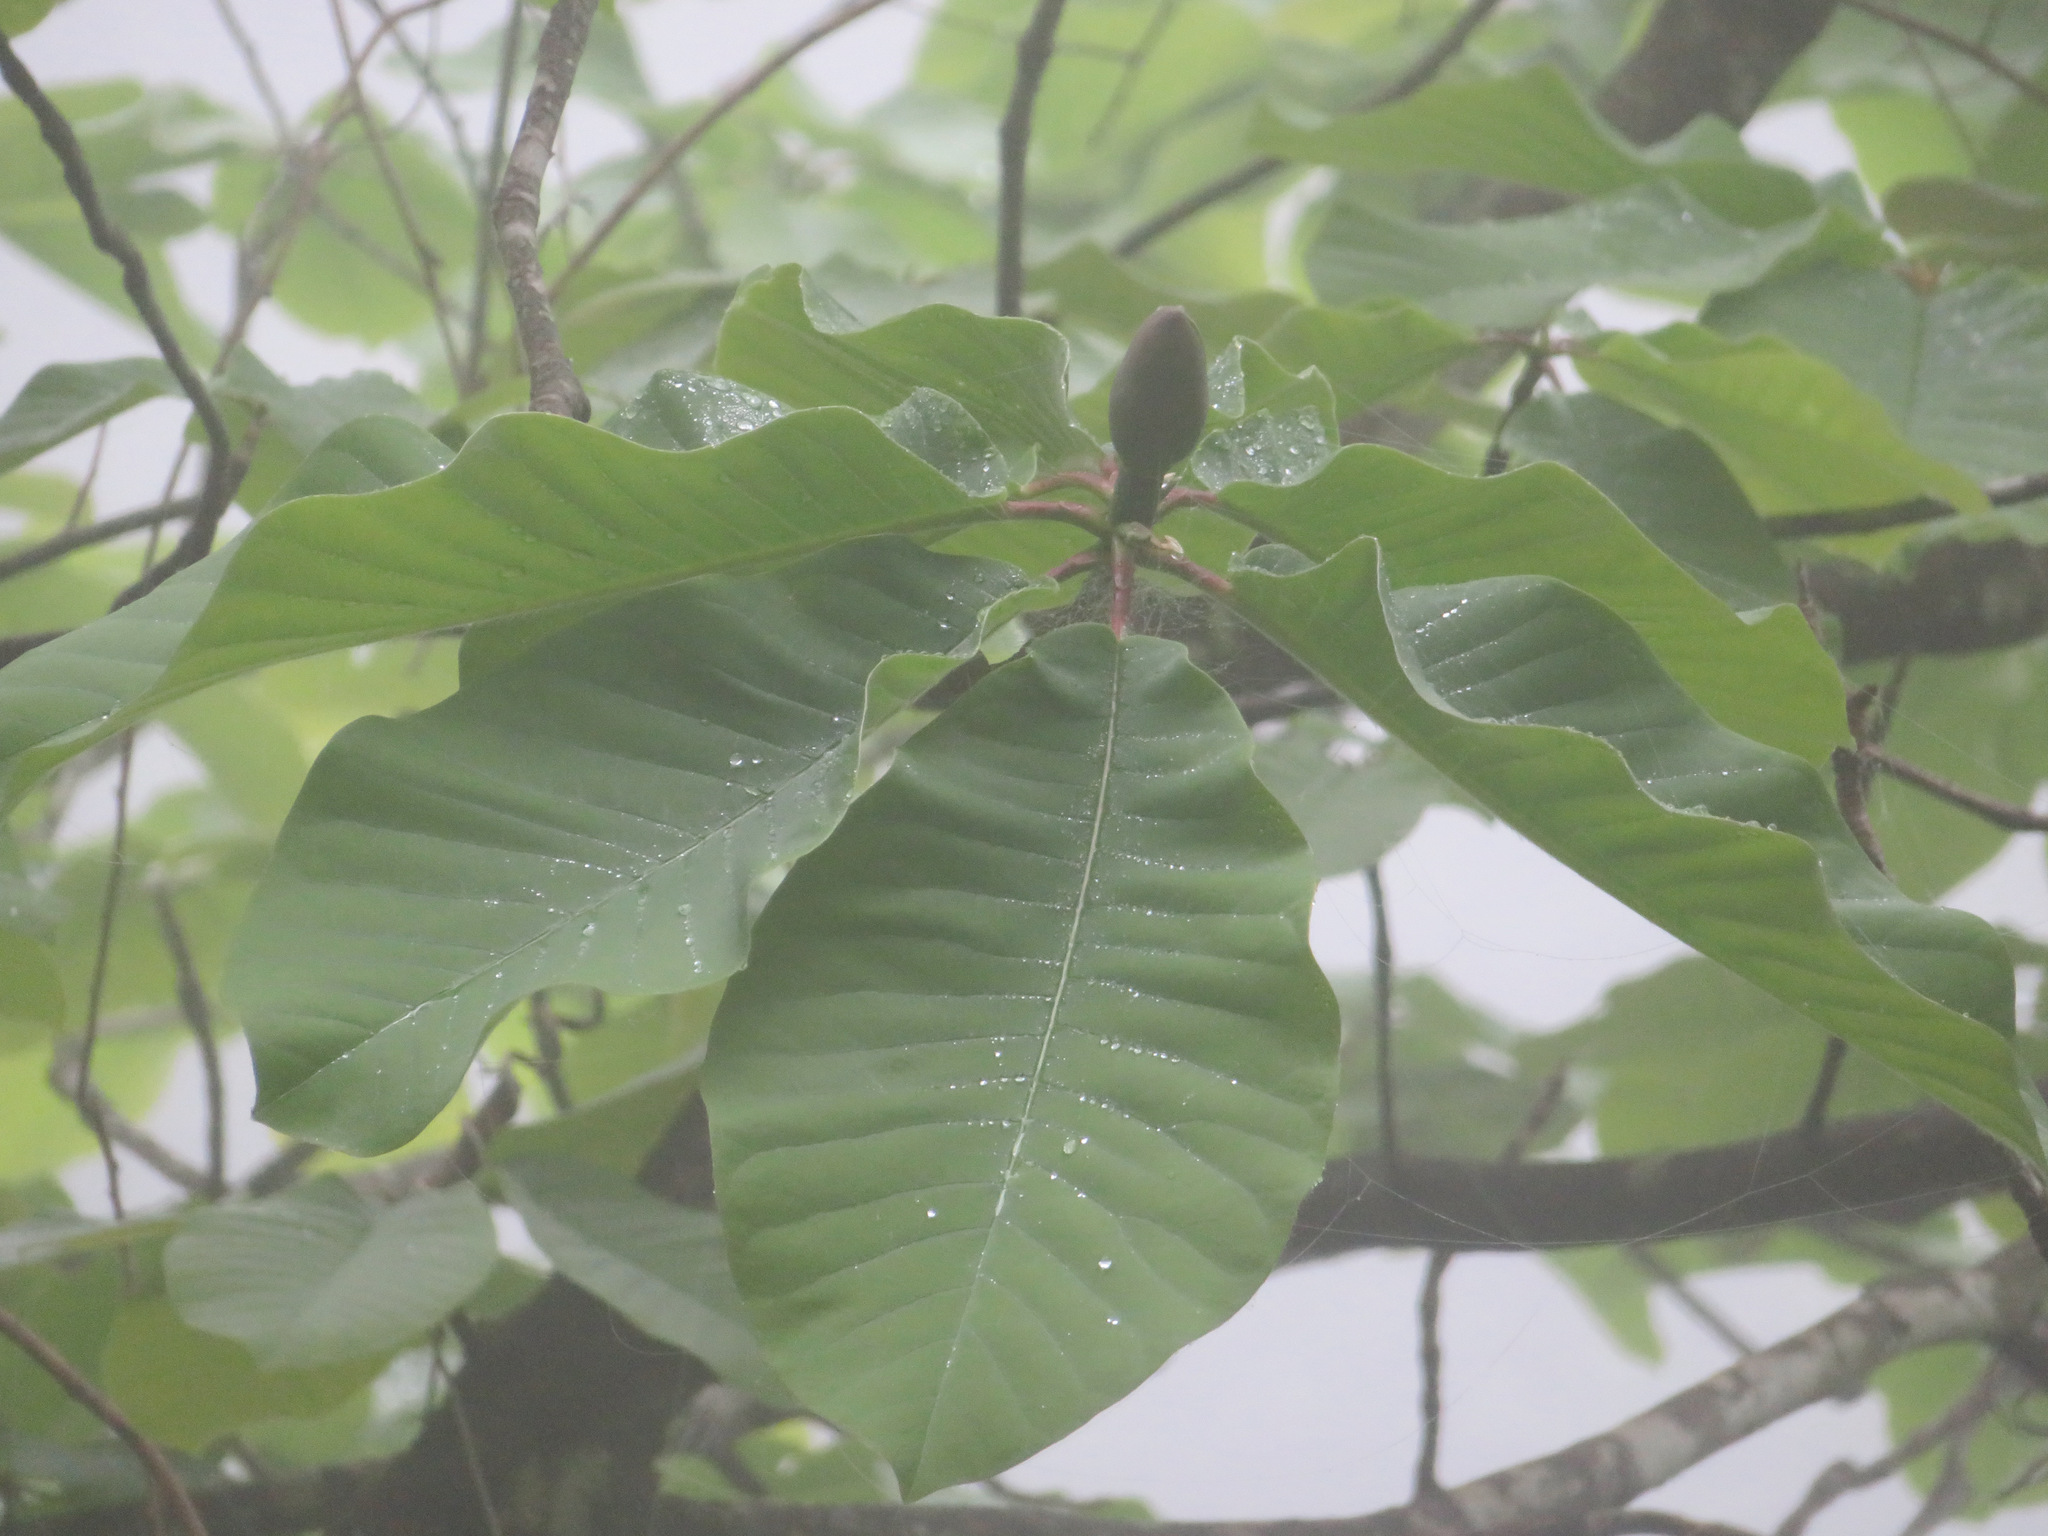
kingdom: Plantae
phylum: Tracheophyta
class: Magnoliopsida
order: Magnoliales
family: Magnoliaceae
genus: Magnolia
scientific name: Magnolia obovata
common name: Japanese whitebark magnolia
